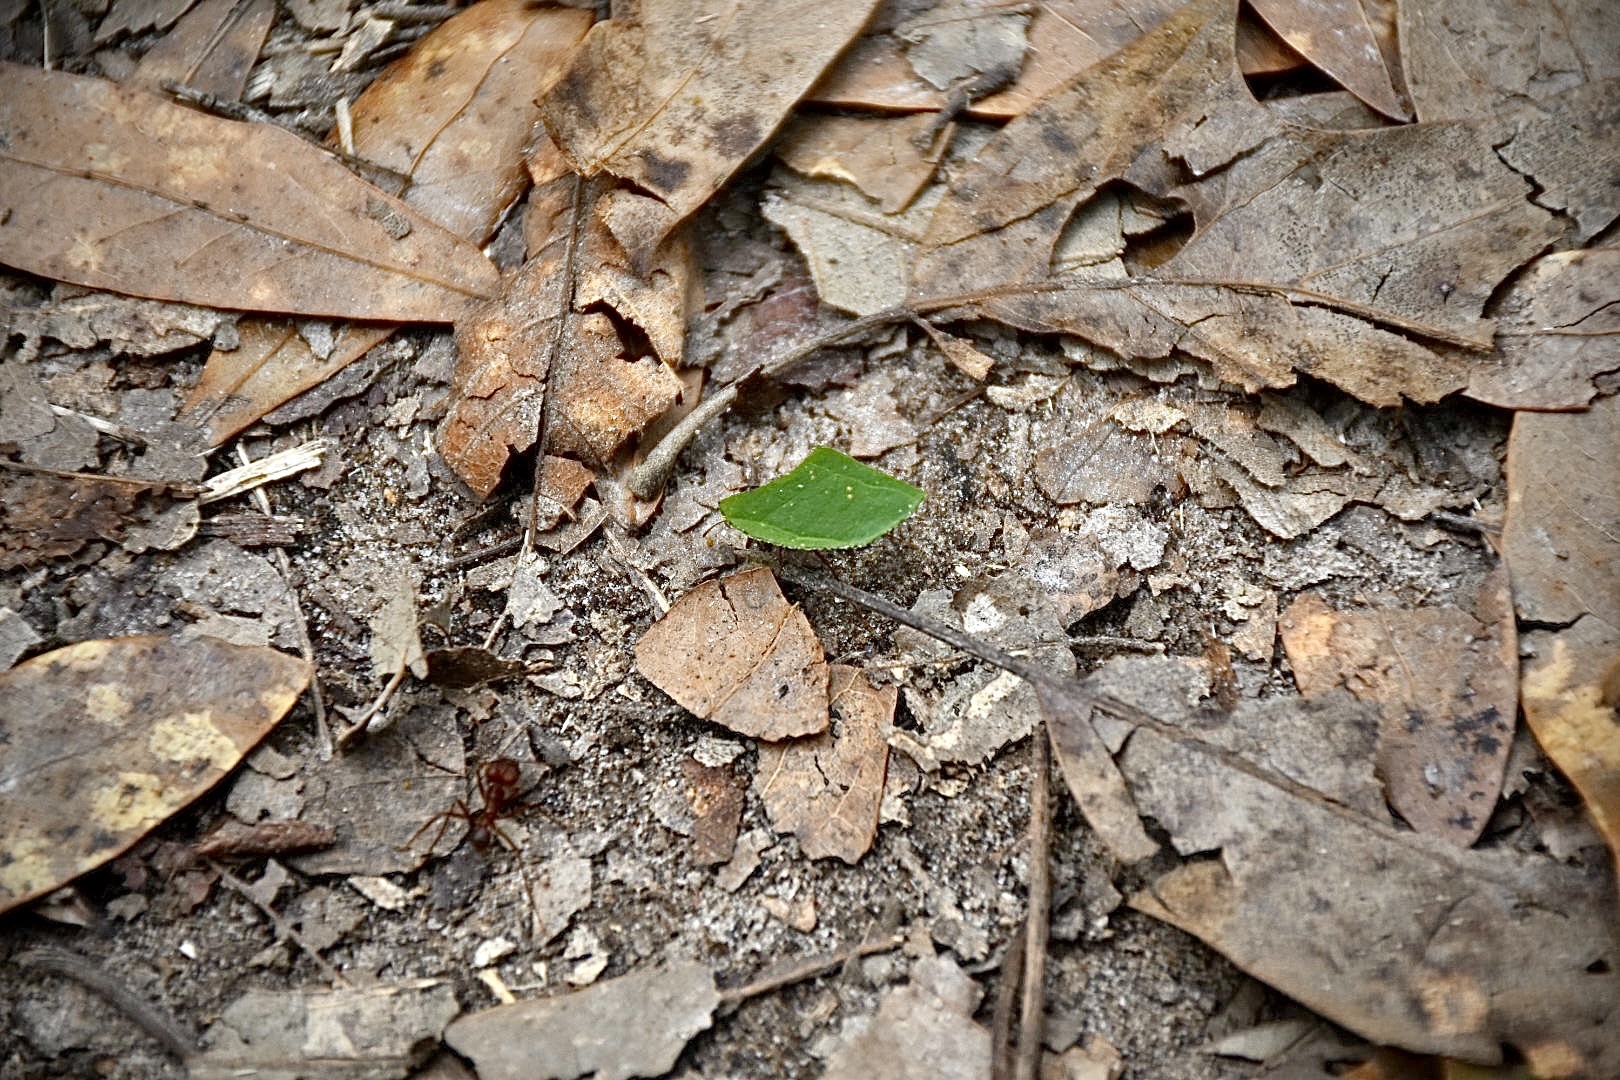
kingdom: Animalia
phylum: Arthropoda
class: Insecta
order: Hymenoptera
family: Formicidae
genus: Atta
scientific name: Atta texana
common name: Texas leafcutting ant
